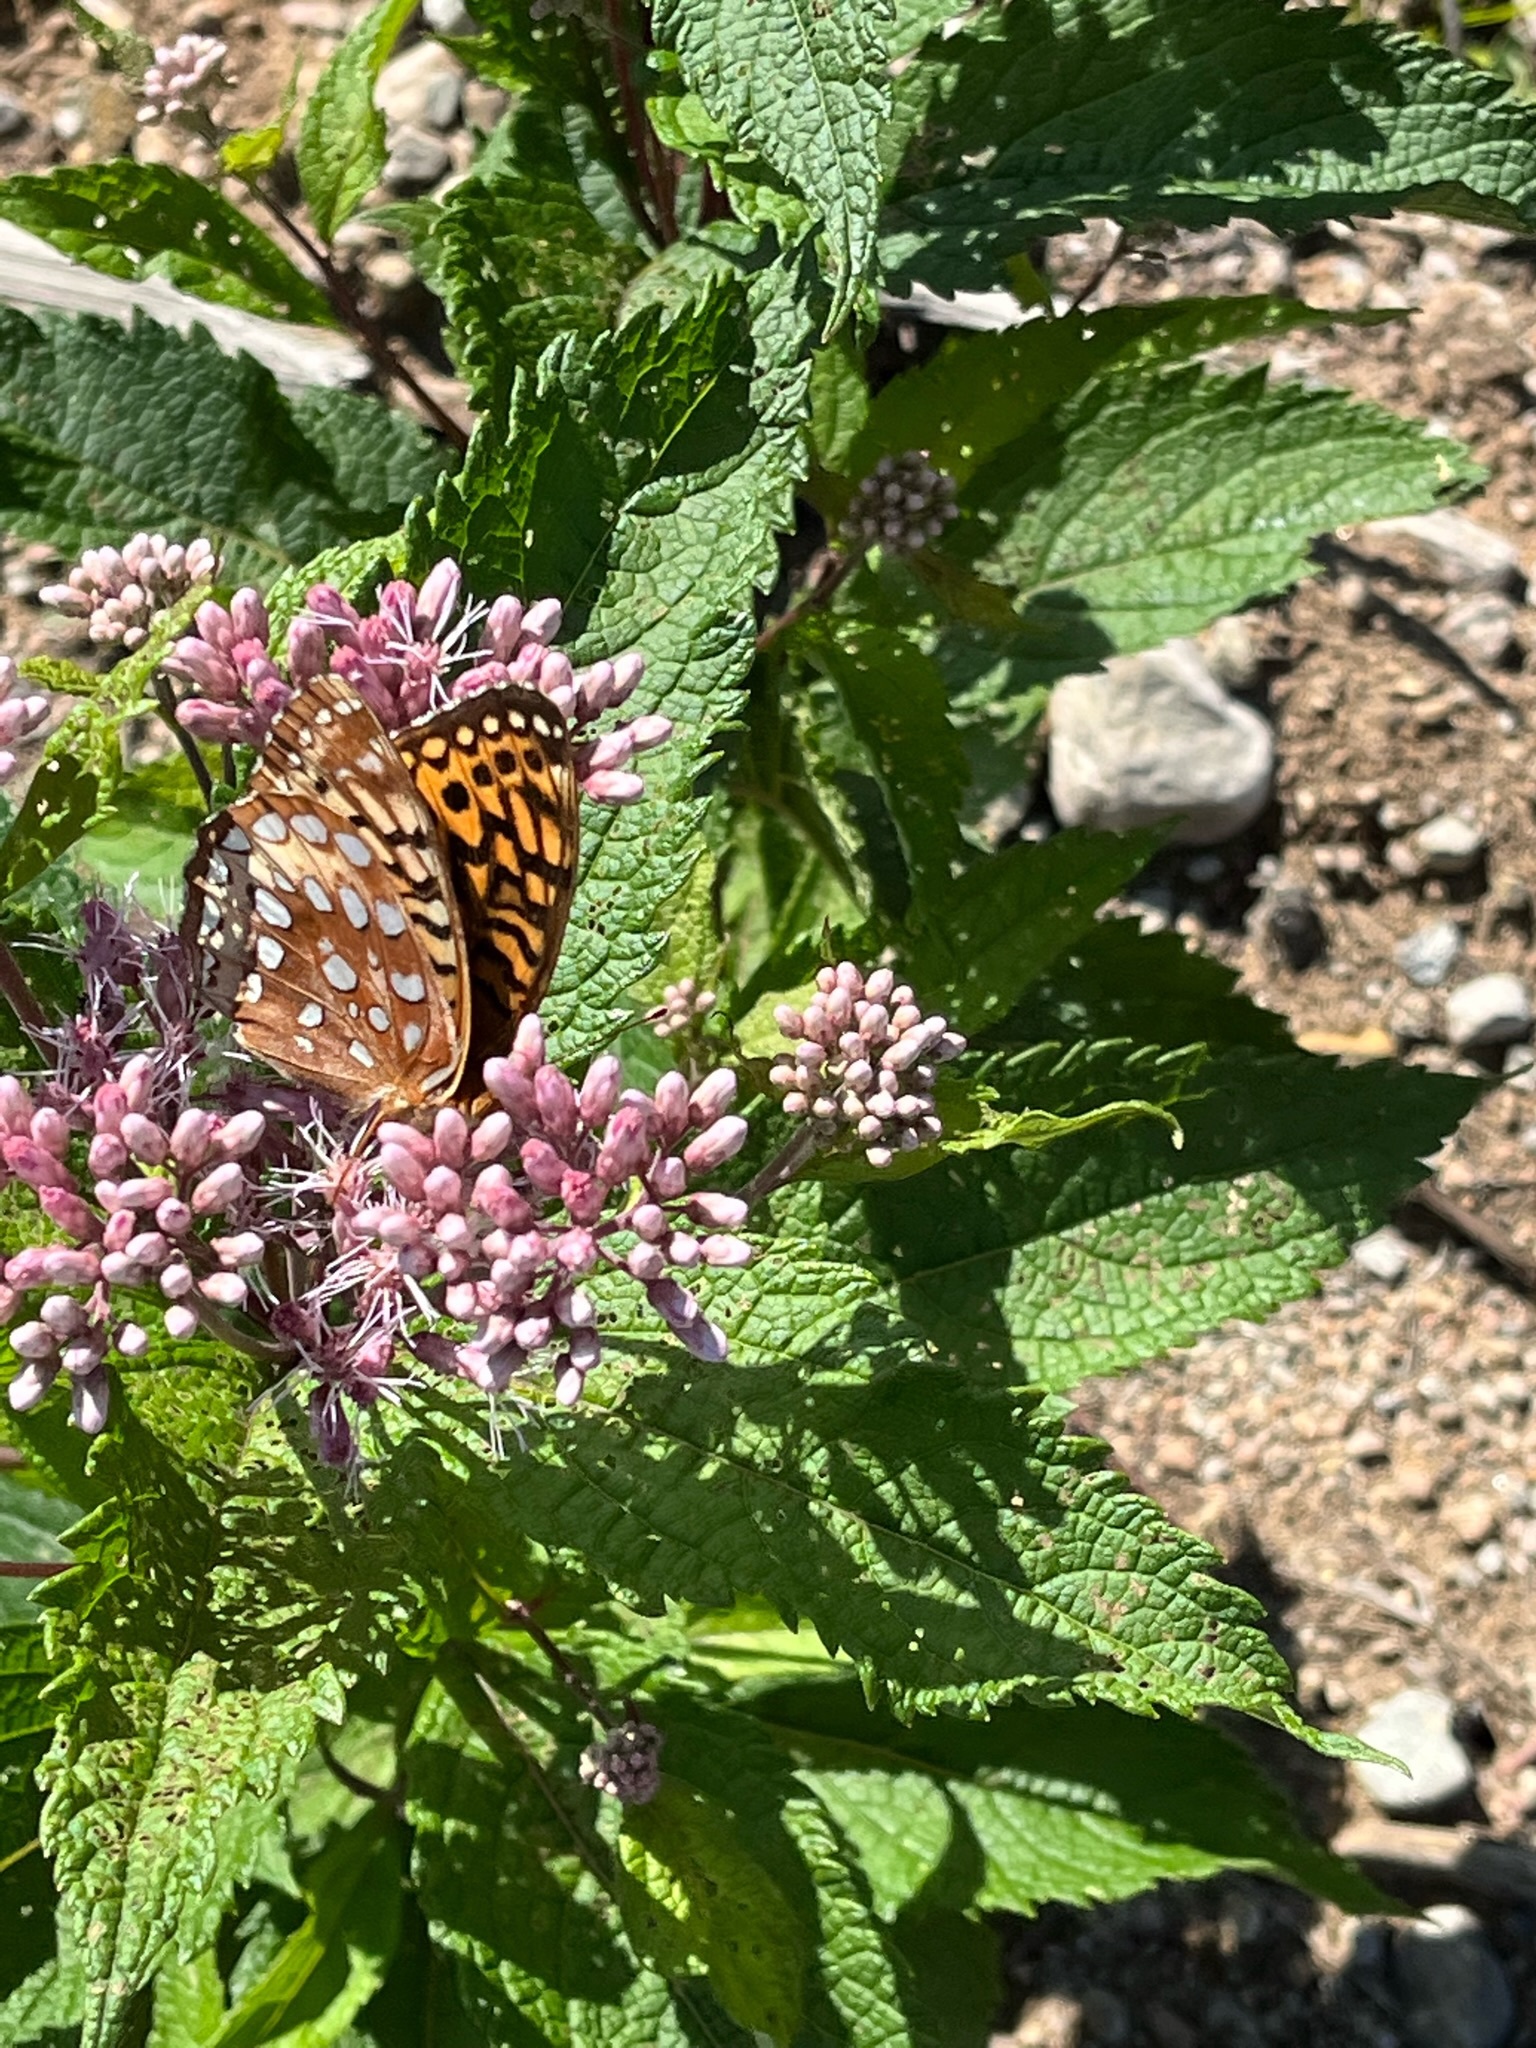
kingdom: Animalia
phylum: Arthropoda
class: Insecta
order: Lepidoptera
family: Nymphalidae
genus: Speyeria
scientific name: Speyeria cybele
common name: Great spangled fritillary
